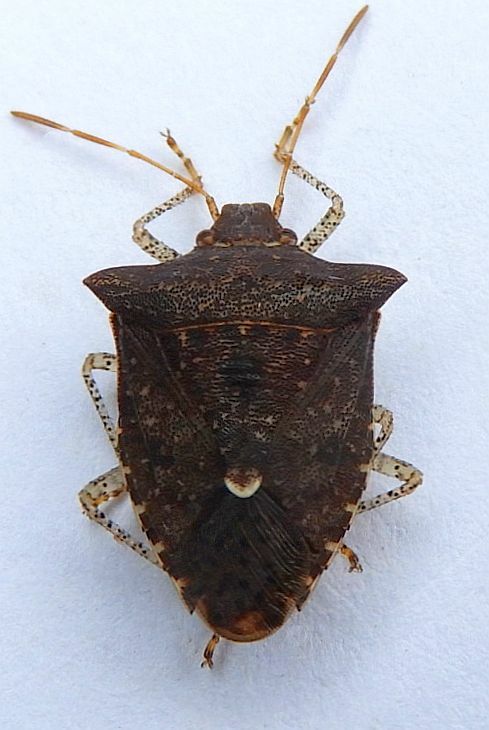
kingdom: Animalia
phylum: Arthropoda
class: Insecta
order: Hemiptera
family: Pentatomidae
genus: Euschistus
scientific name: Euschistus tristigmus
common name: Dusky stink bug
